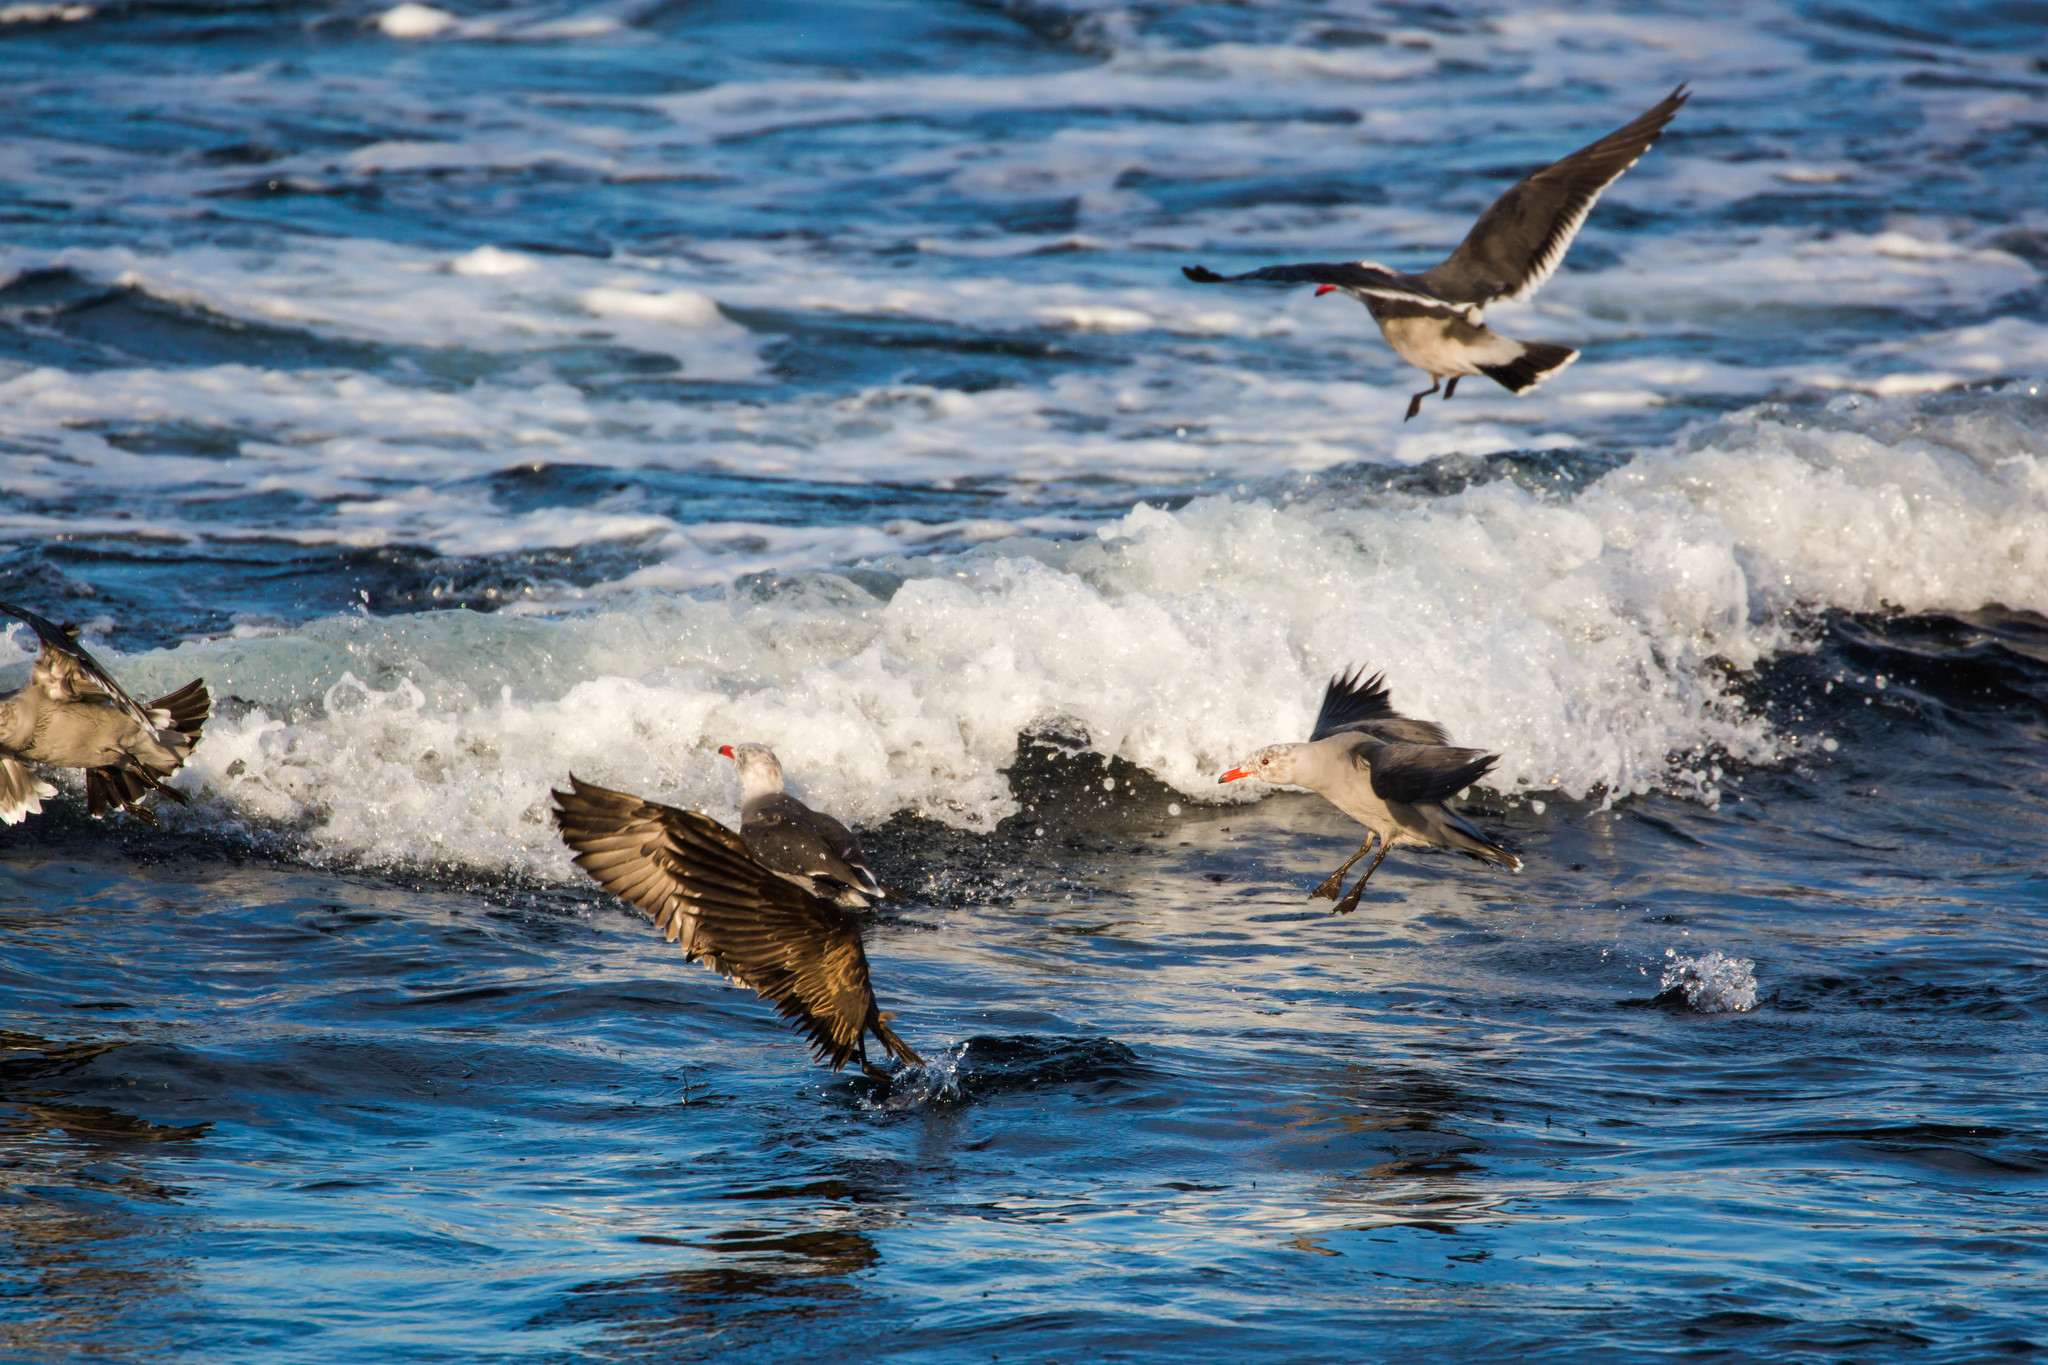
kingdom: Animalia
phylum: Chordata
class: Aves
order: Charadriiformes
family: Laridae
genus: Larus
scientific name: Larus heermanni
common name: Heermann's gull
